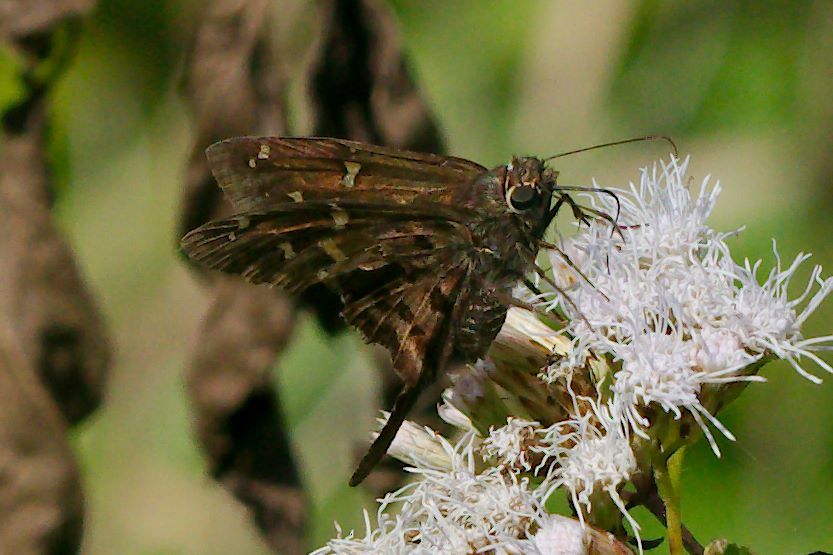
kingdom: Animalia
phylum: Arthropoda
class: Insecta
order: Lepidoptera
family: Hesperiidae
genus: Thorybes
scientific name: Thorybes
